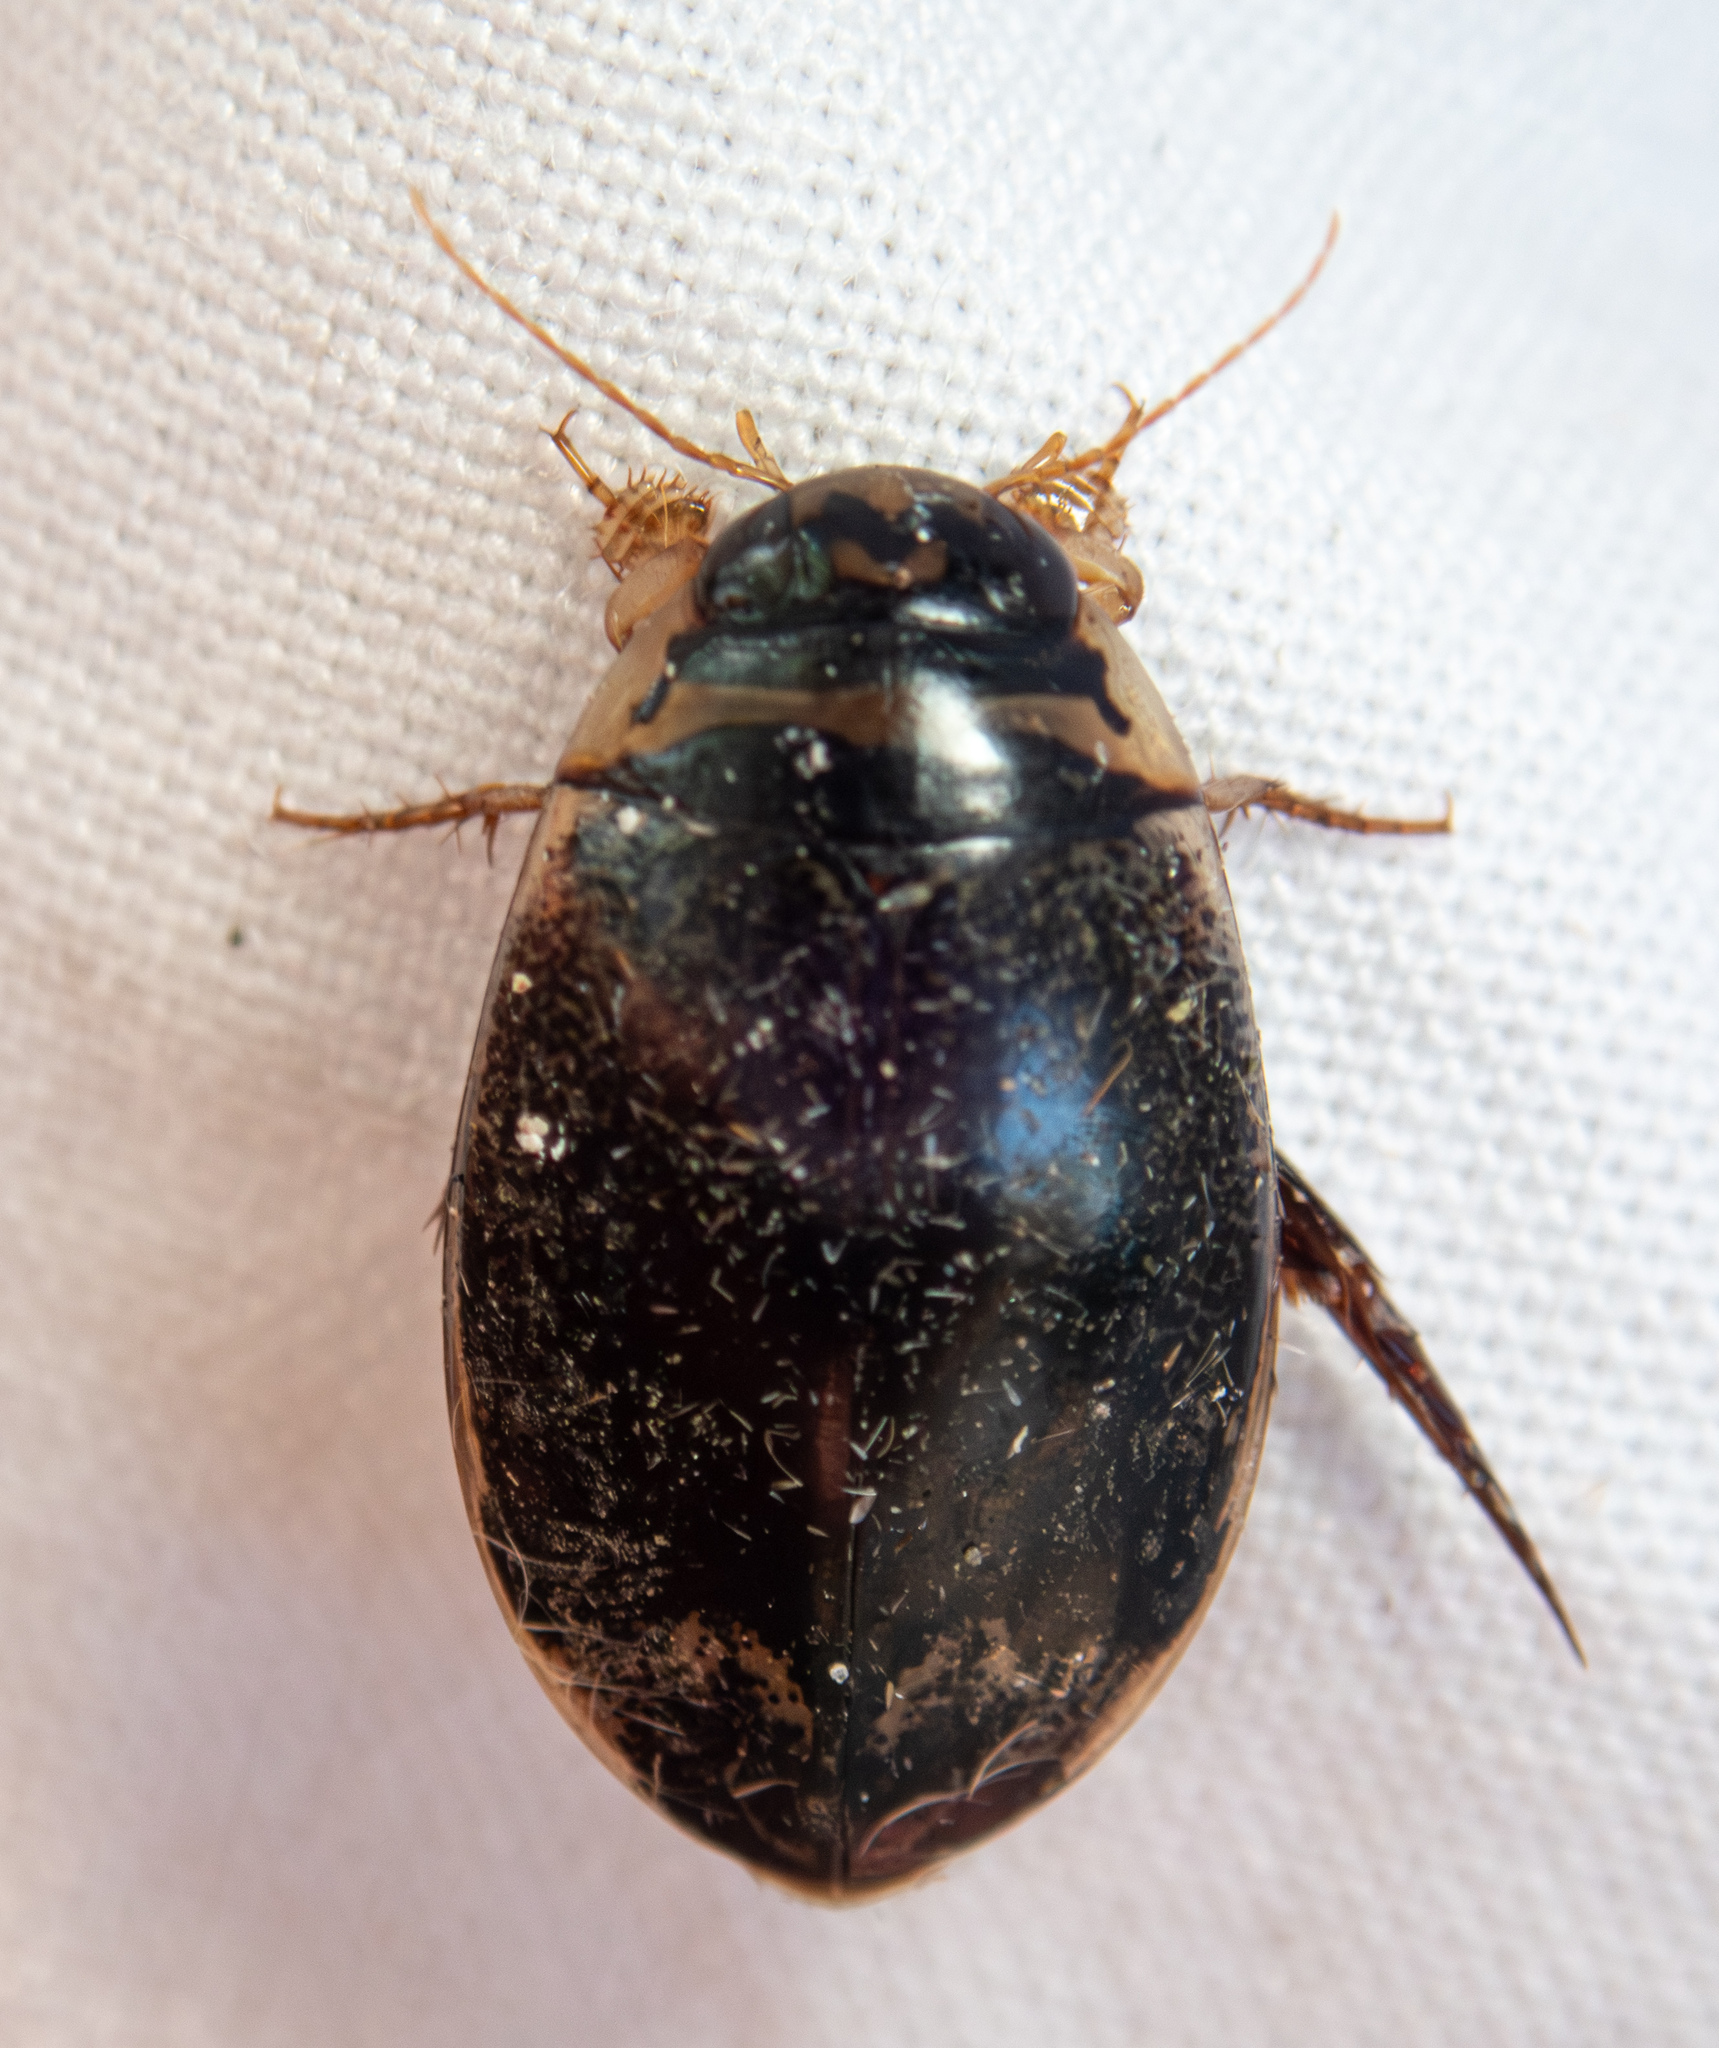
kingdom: Animalia
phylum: Arthropoda
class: Insecta
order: Coleoptera
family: Dytiscidae
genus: Thermonectus
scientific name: Thermonectus circumscriptus
